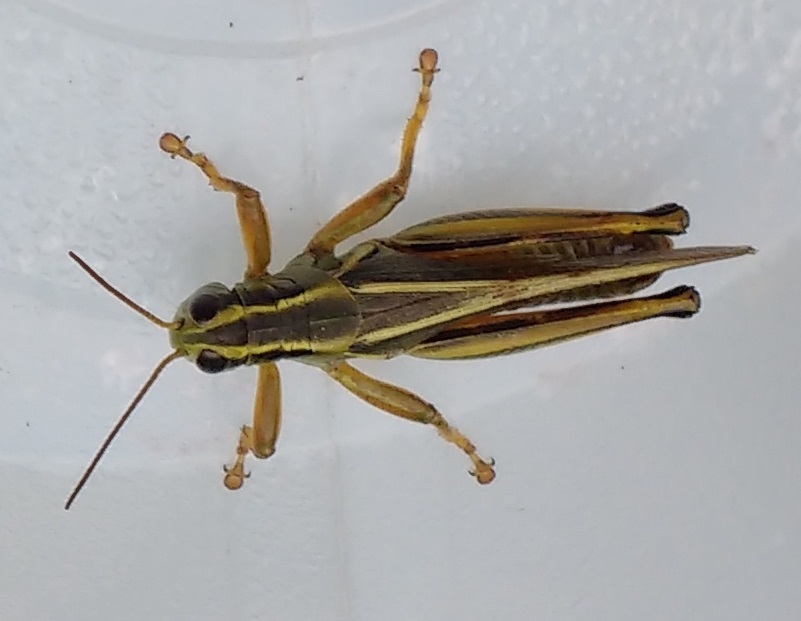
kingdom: Animalia
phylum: Arthropoda
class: Insecta
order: Orthoptera
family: Acrididae
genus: Melanoplus
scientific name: Melanoplus bivittatus
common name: Two-striped grasshopper
